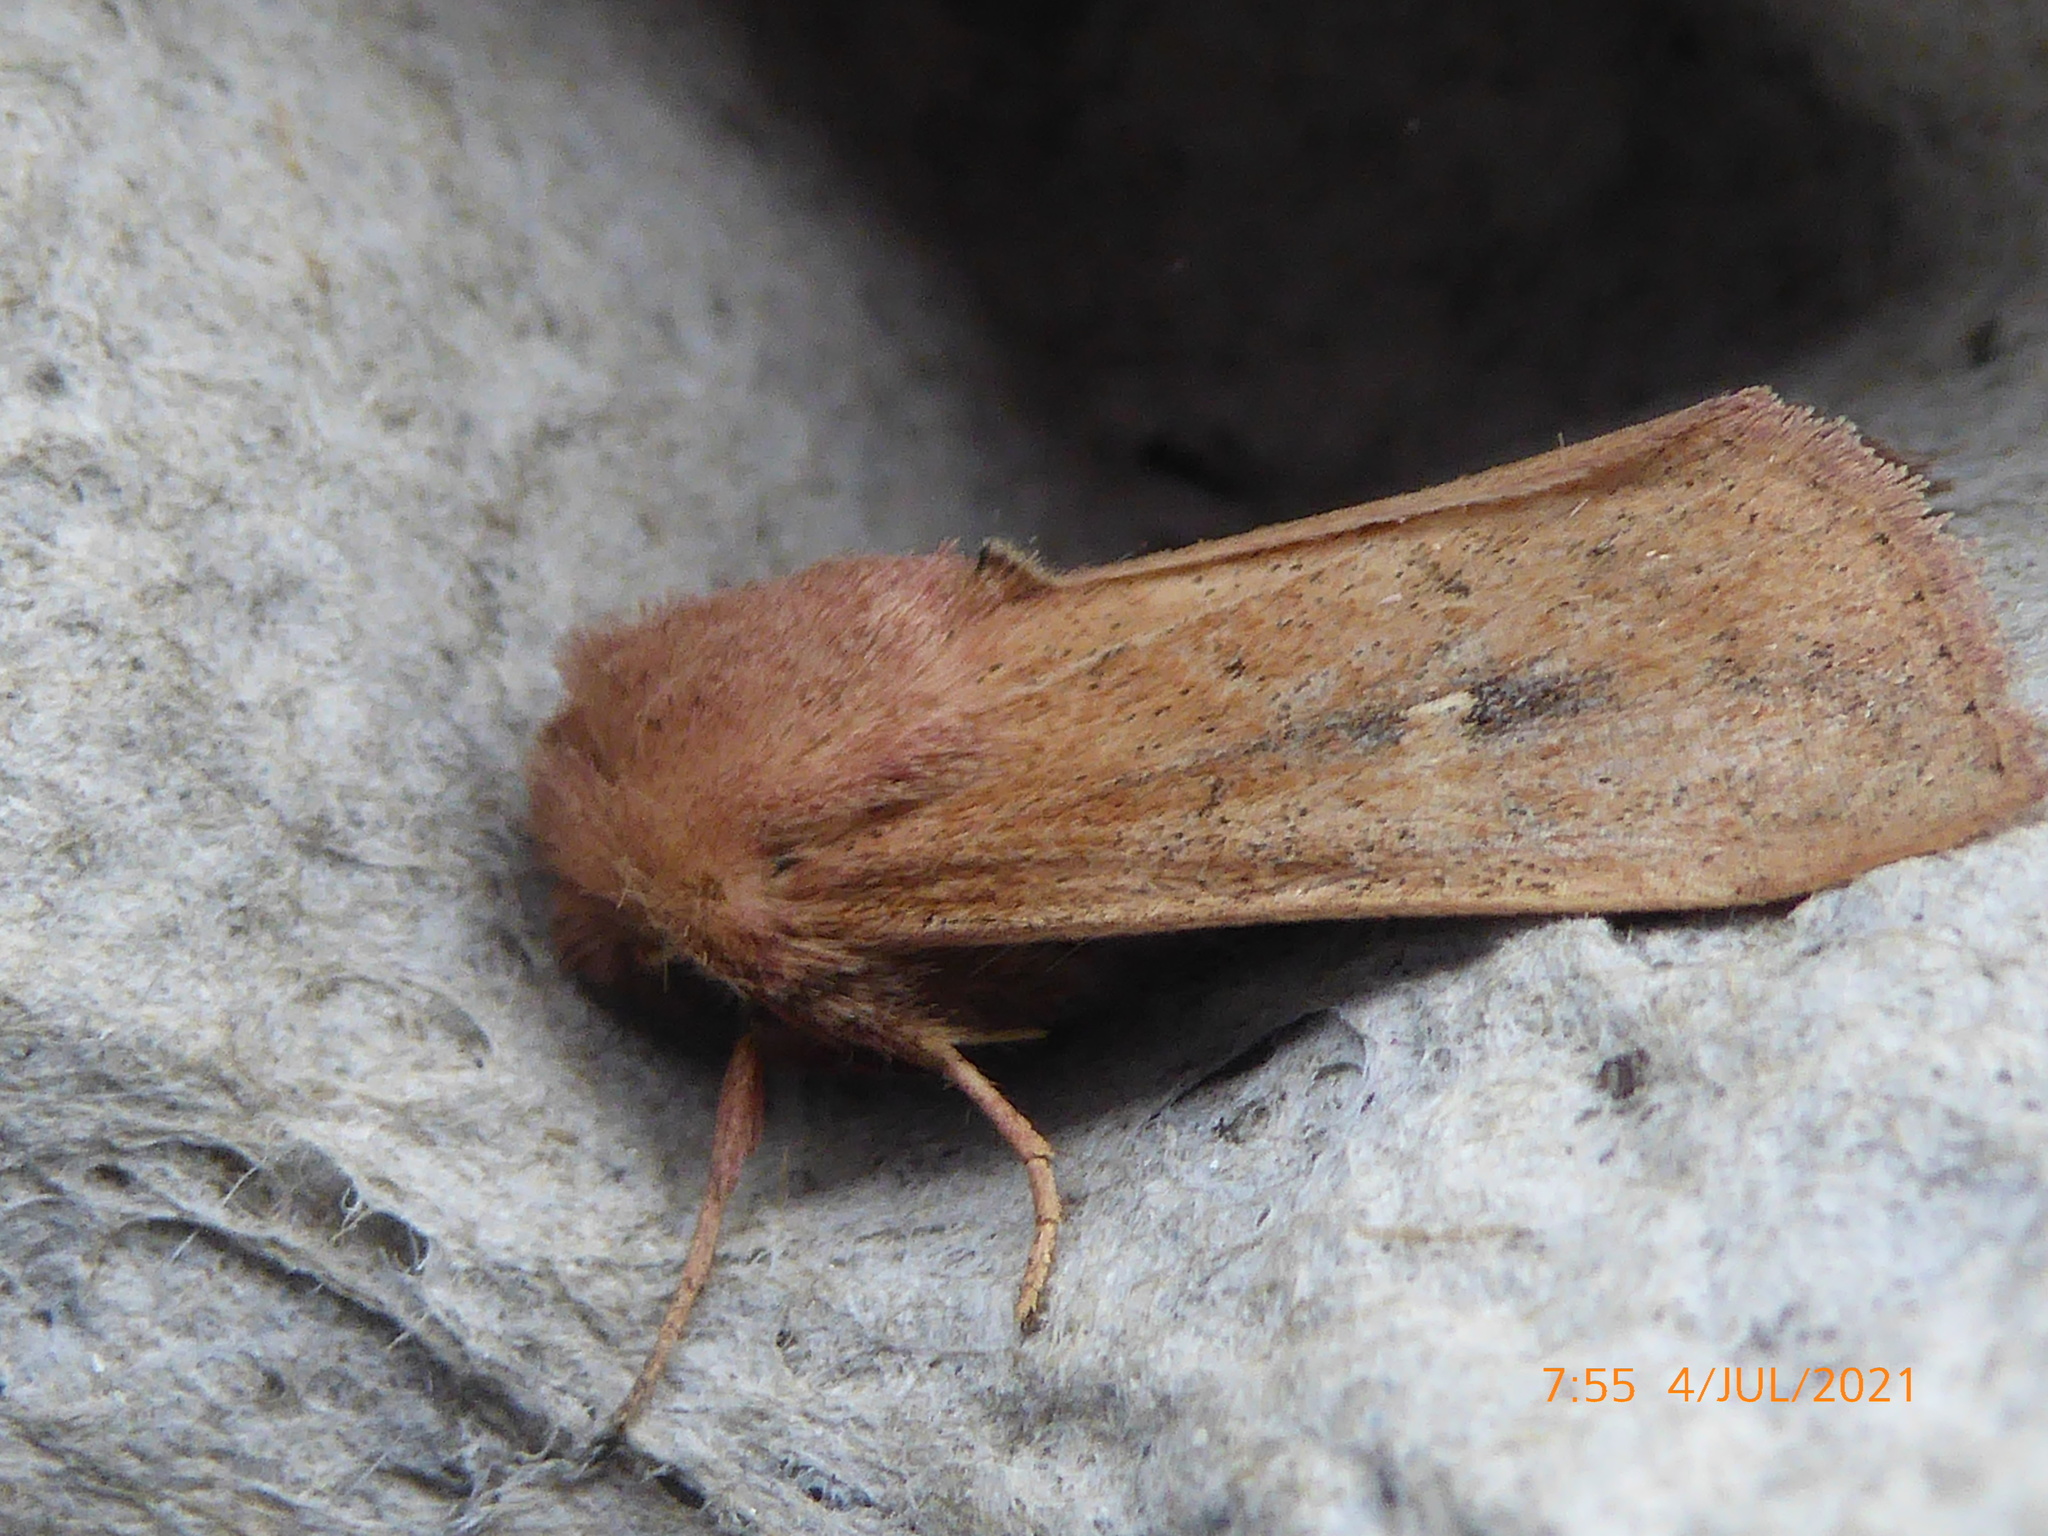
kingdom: Animalia
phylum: Arthropoda
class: Insecta
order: Lepidoptera
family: Noctuidae
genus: Mythimna
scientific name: Mythimna ferrago
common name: Clay
